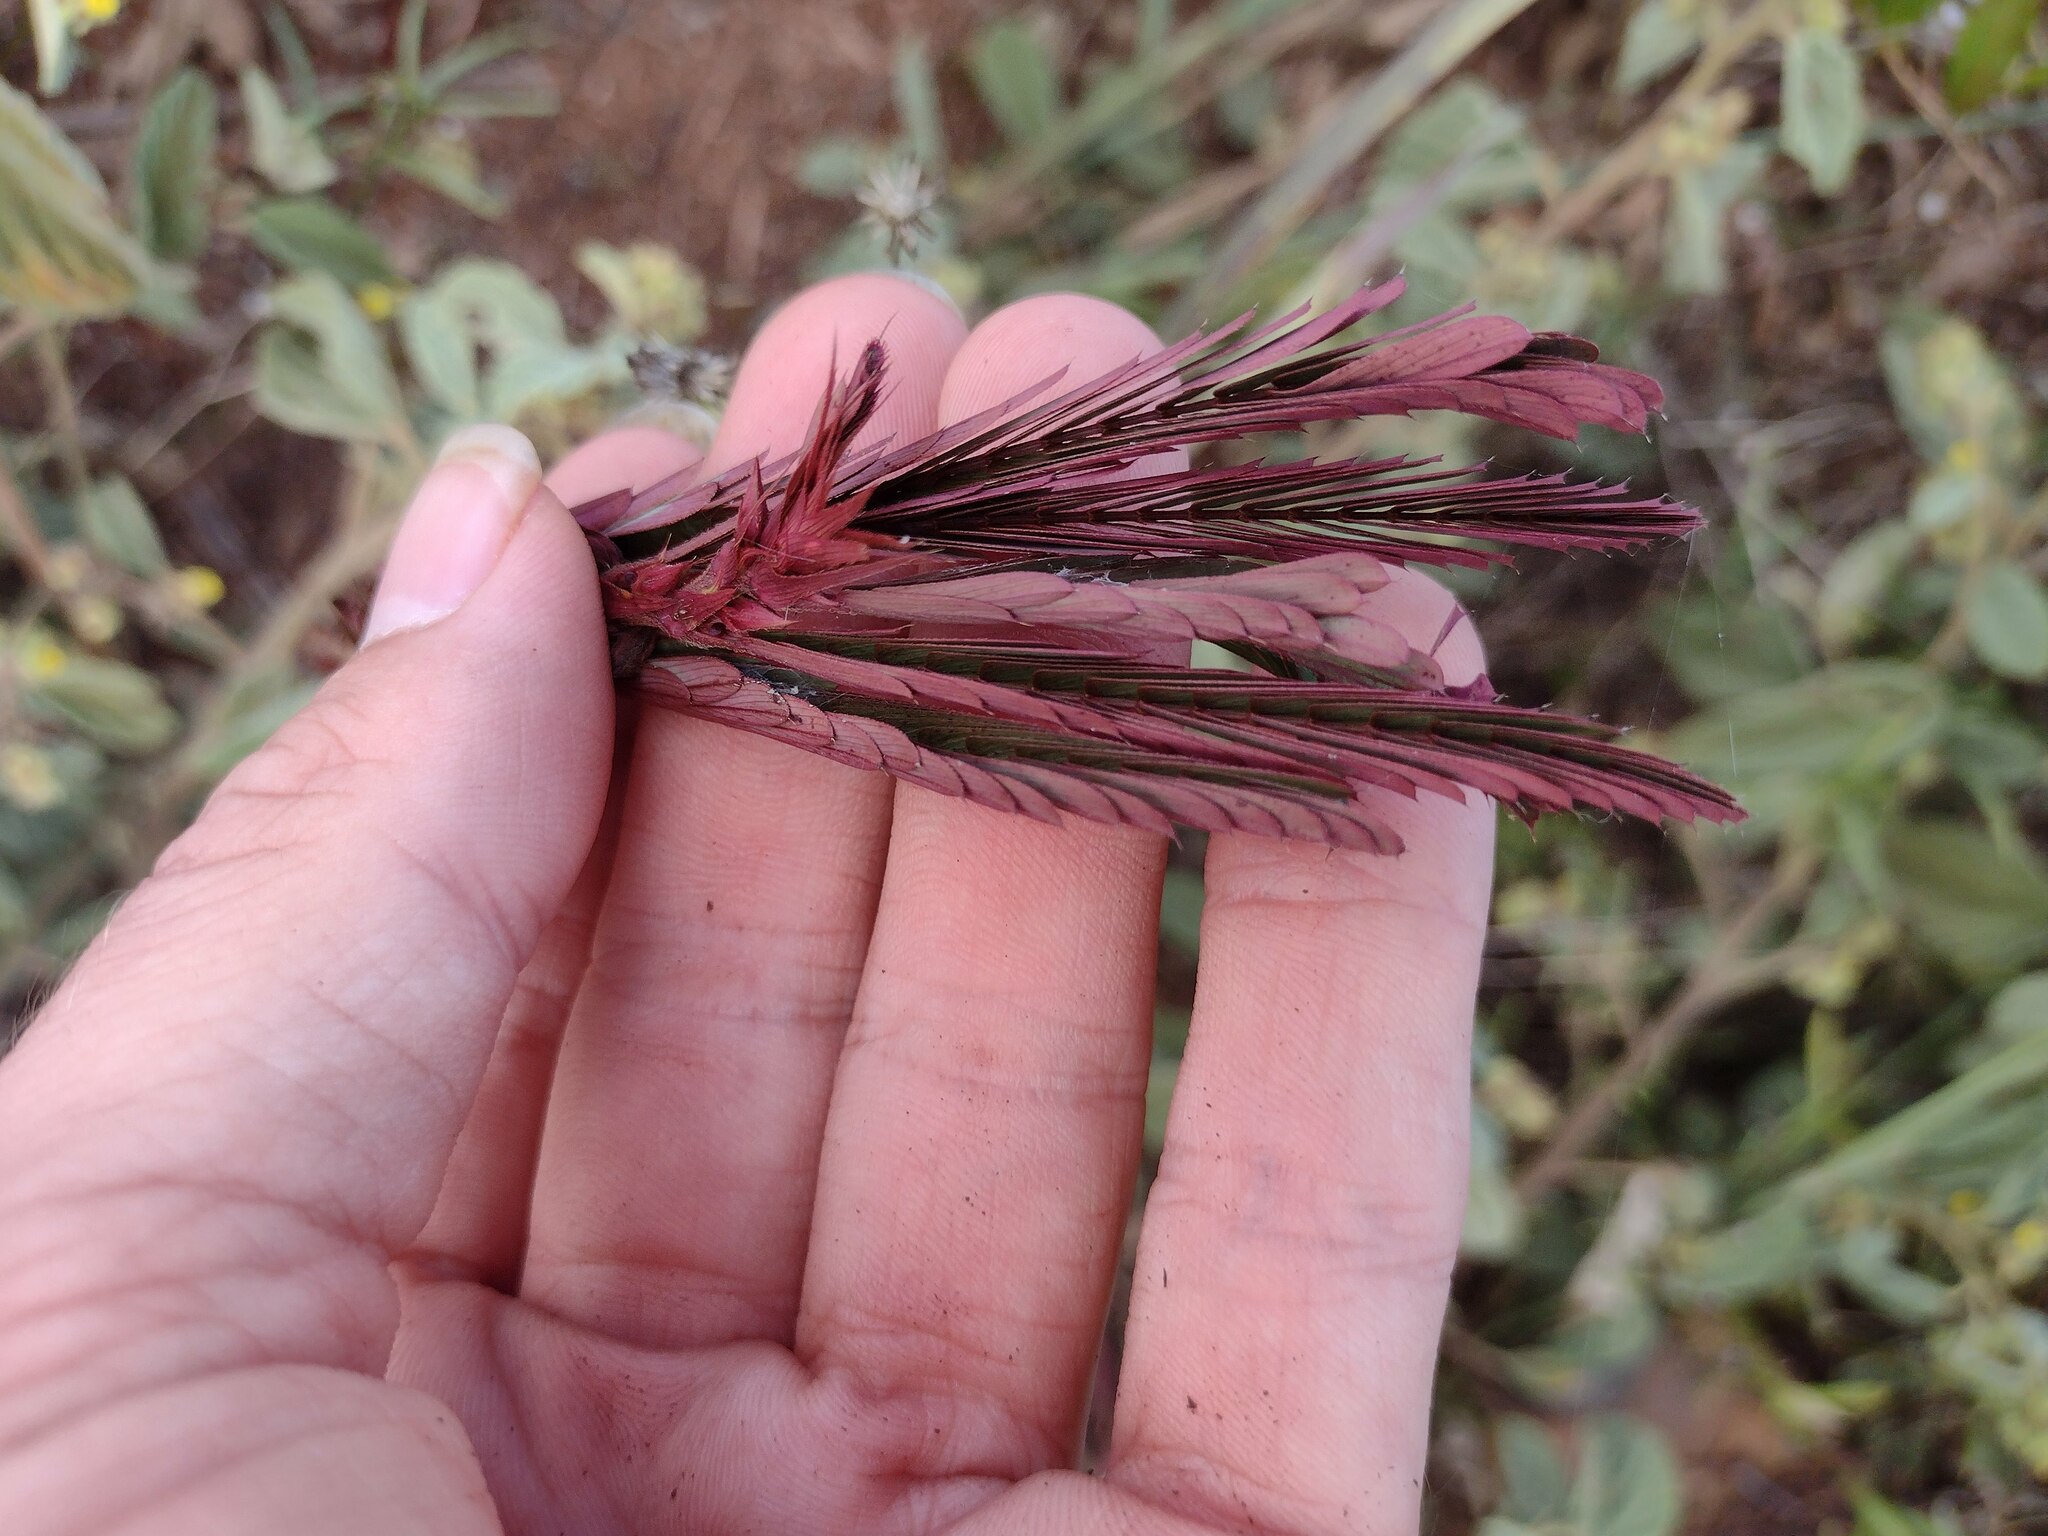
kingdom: Plantae
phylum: Tracheophyta
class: Magnoliopsida
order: Fabales
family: Fabaceae
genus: Chamaecrista
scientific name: Chamaecrista nictitans
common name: Sensitive cassia
